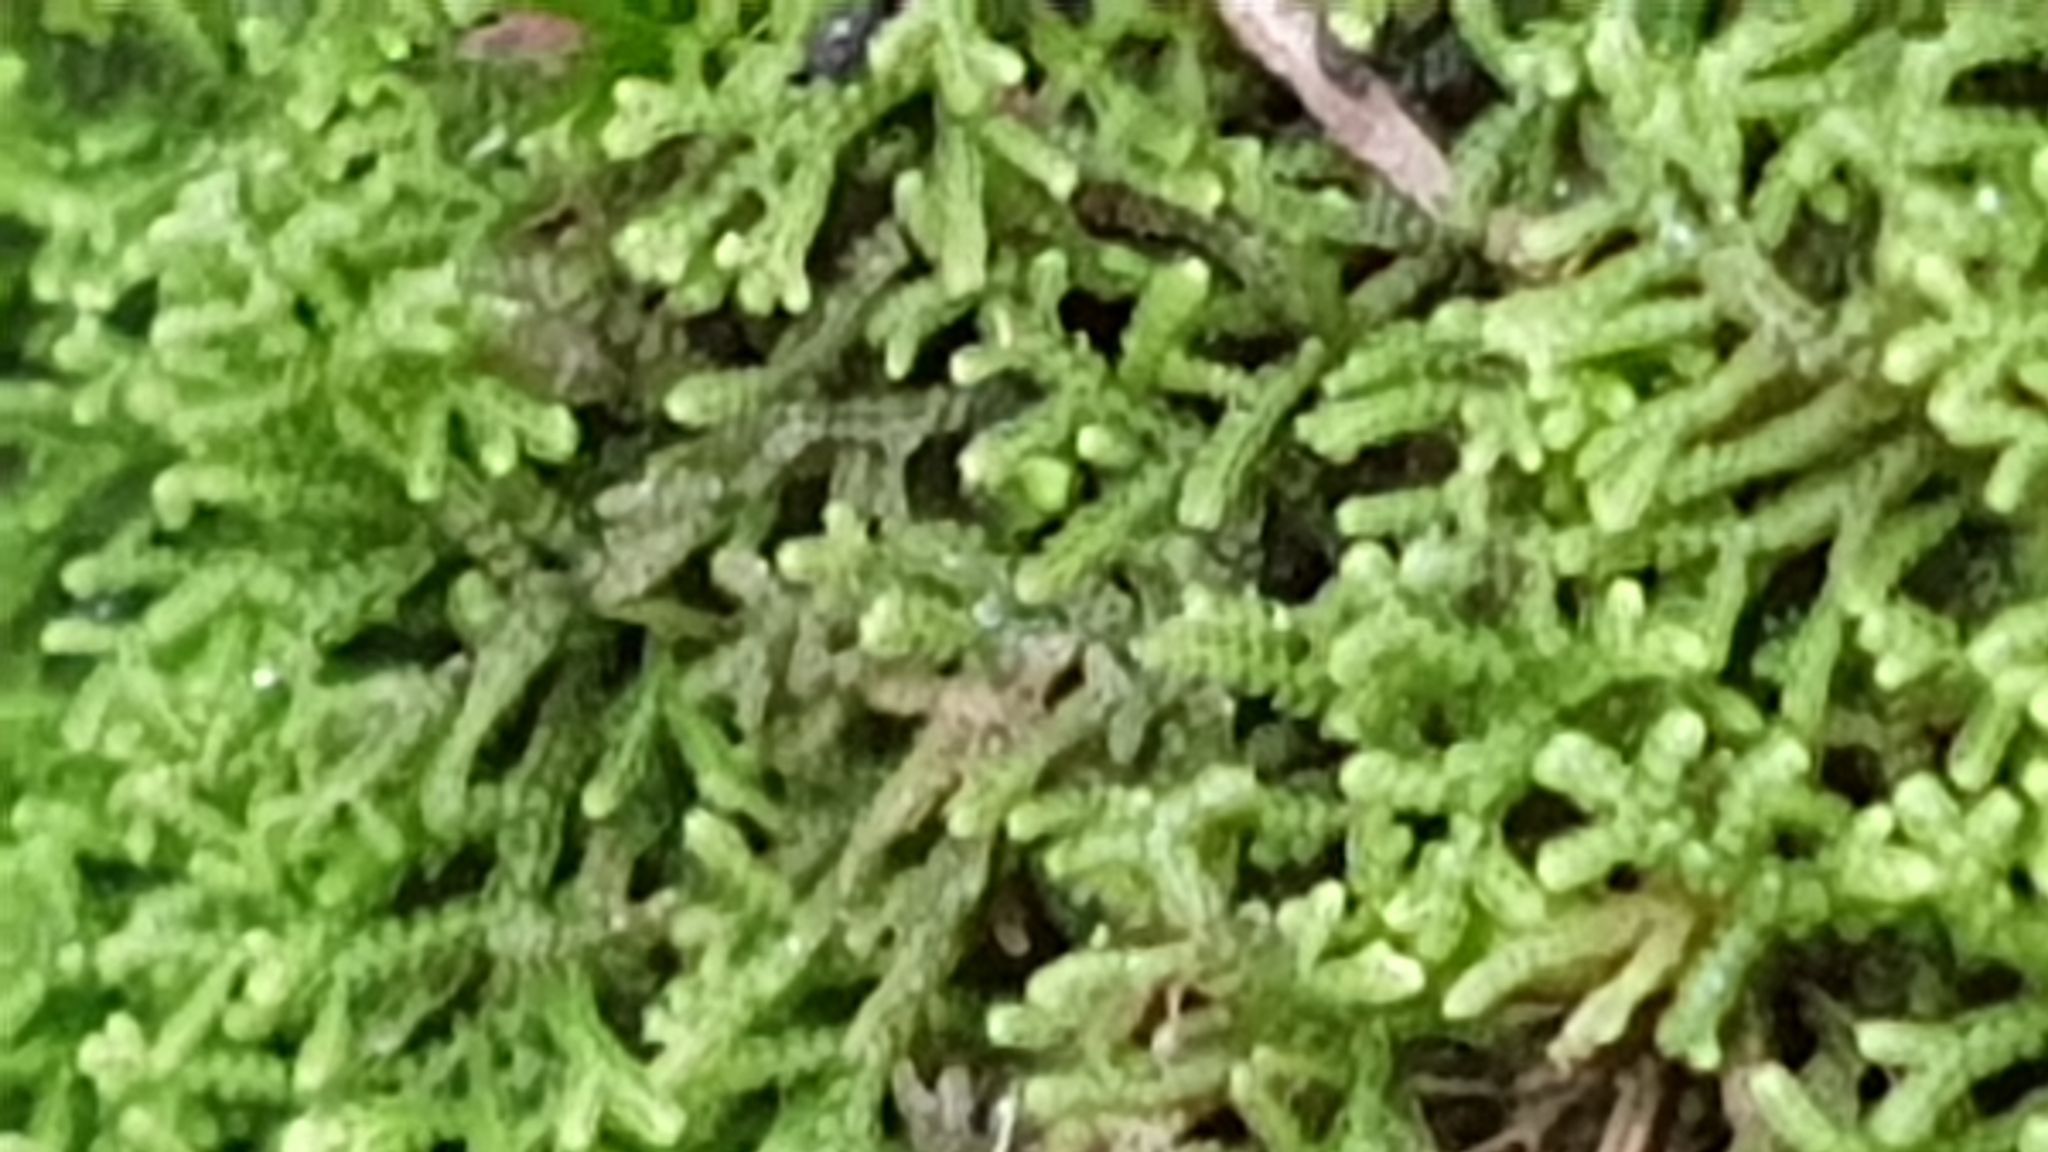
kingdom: Plantae
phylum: Marchantiophyta
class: Jungermanniopsida
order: Jungermanniales
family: Cephaloziellaceae
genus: Chaetophyllopsis
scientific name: Chaetophyllopsis whiteleggei
